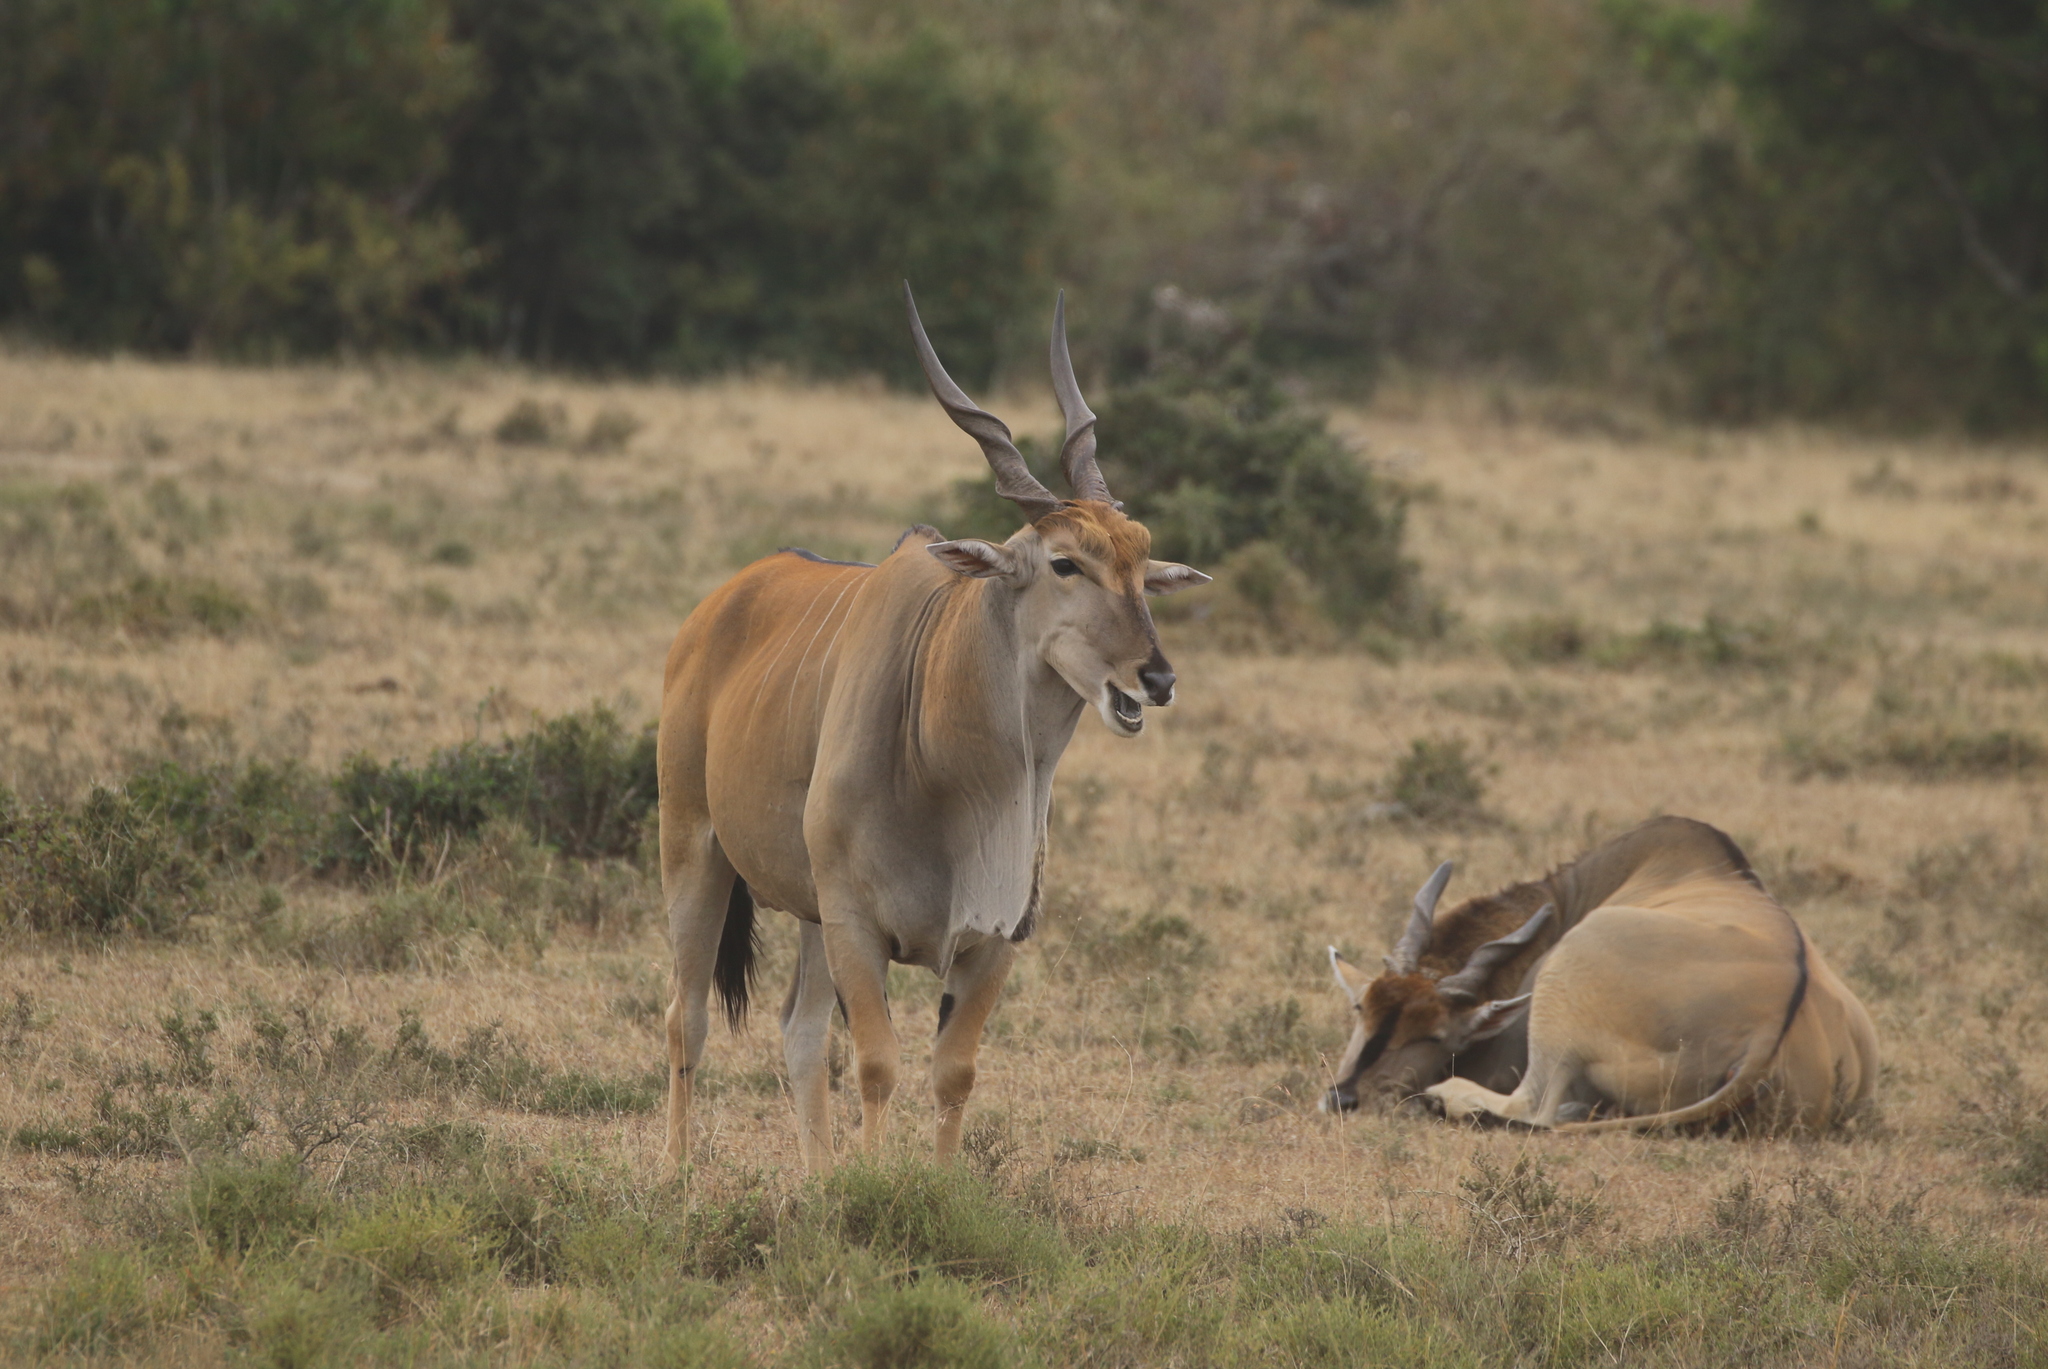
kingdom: Animalia
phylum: Chordata
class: Mammalia
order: Artiodactyla
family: Bovidae
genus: Taurotragus
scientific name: Taurotragus oryx
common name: Common eland
